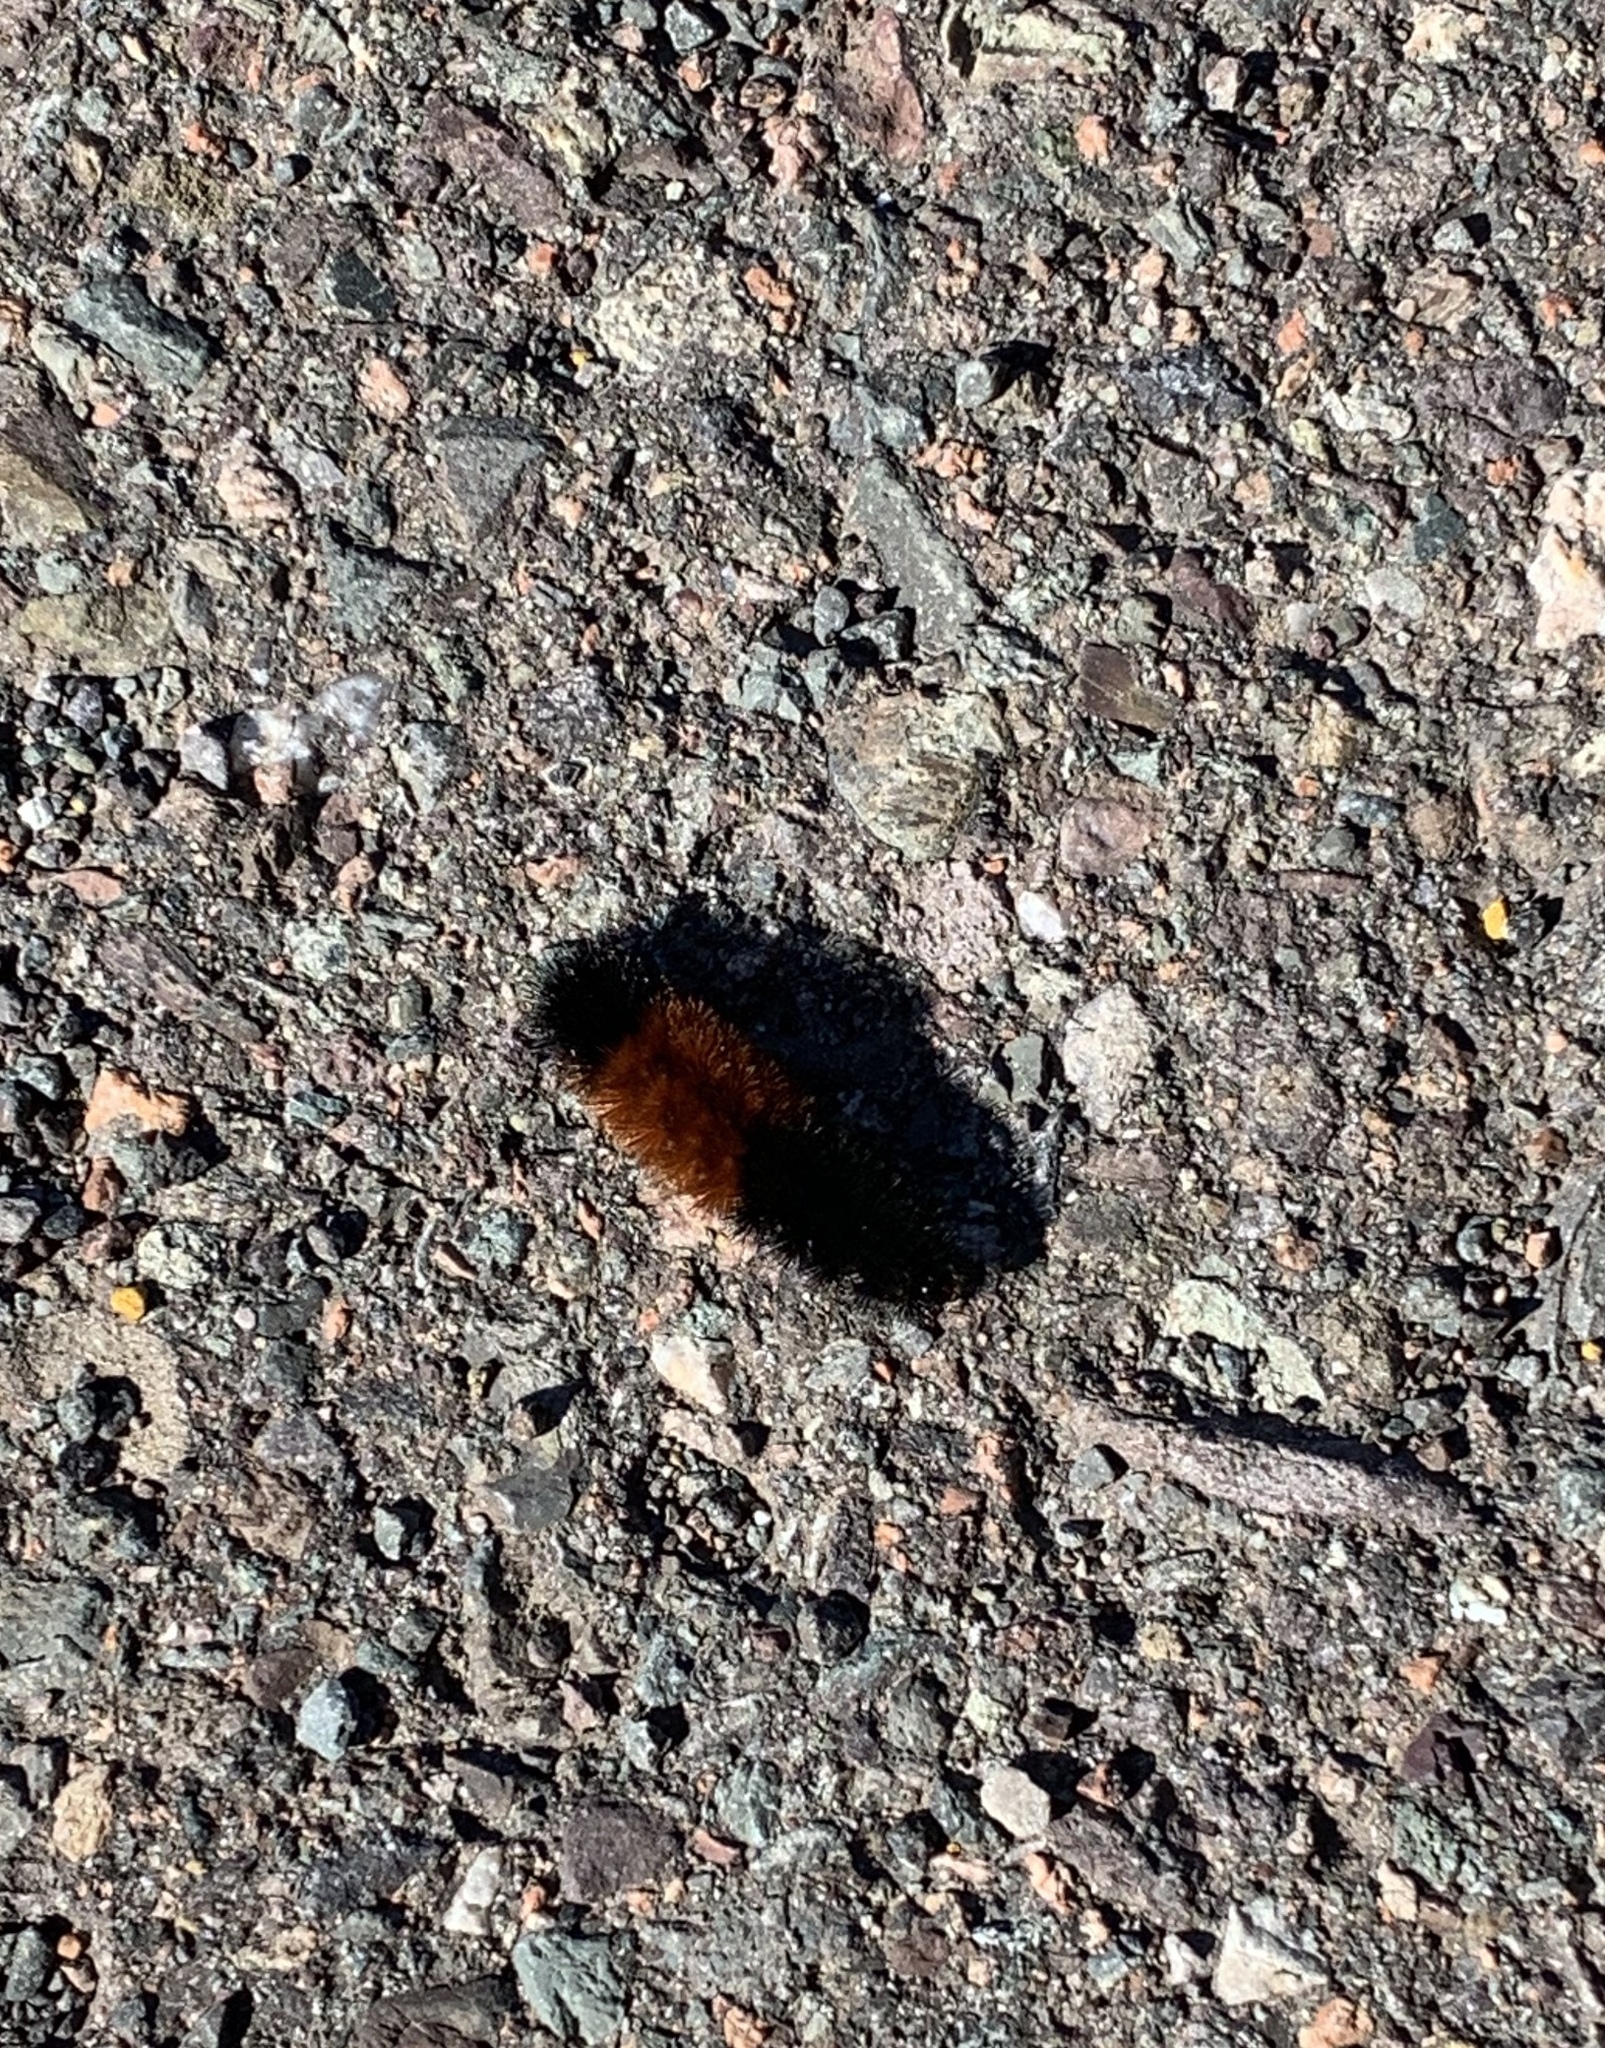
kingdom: Animalia
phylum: Arthropoda
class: Insecta
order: Lepidoptera
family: Erebidae
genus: Pyrrharctia
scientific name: Pyrrharctia isabella
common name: Isabella tiger moth
